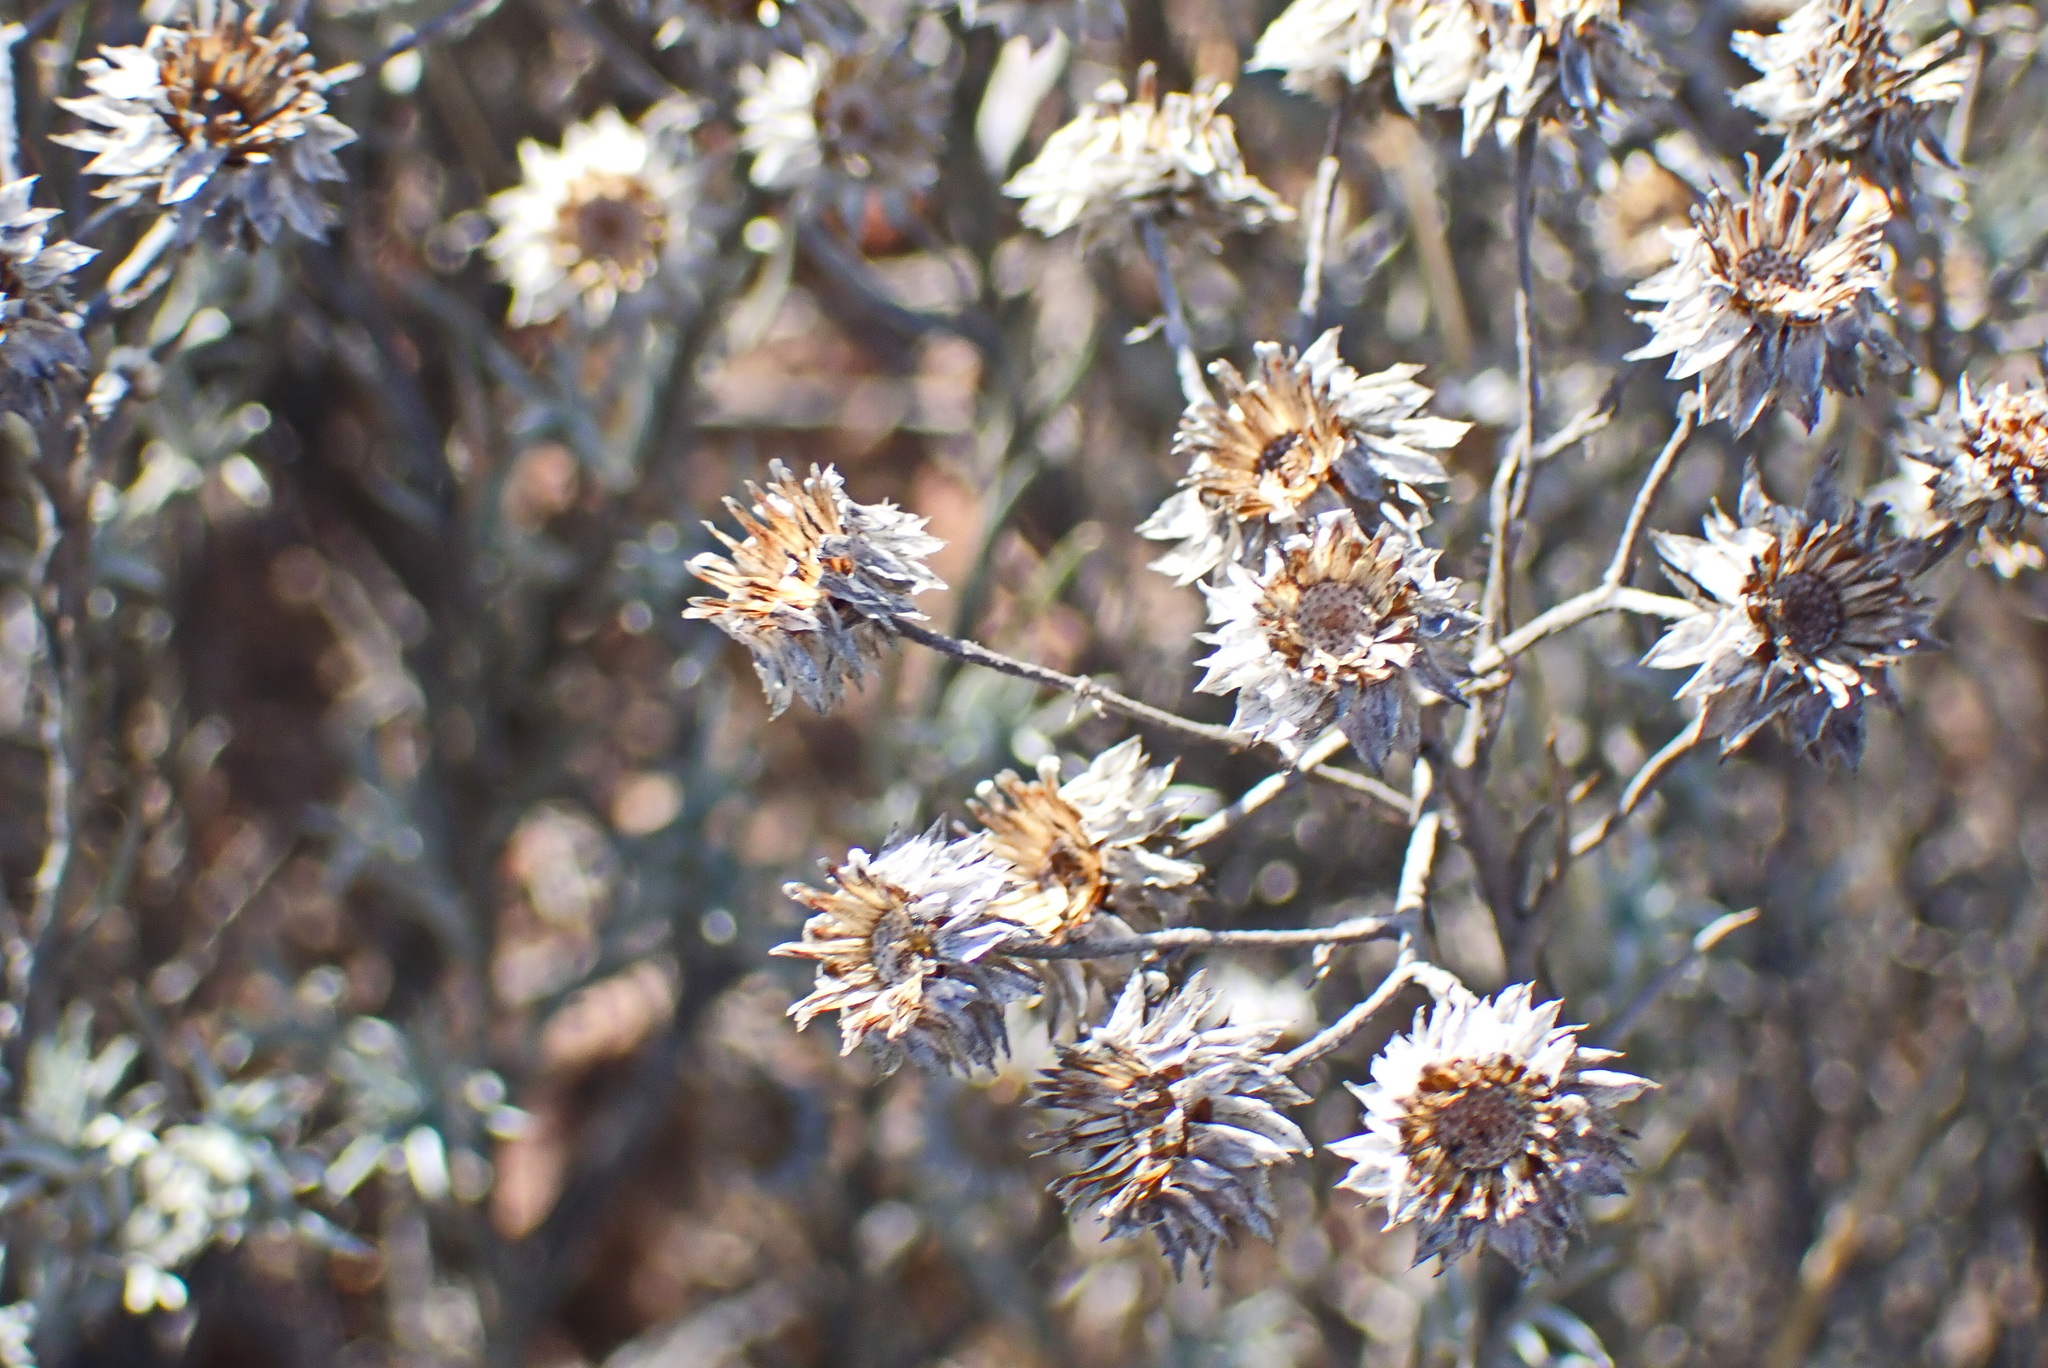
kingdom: Plantae
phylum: Tracheophyta
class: Magnoliopsida
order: Asterales
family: Asteraceae
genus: Achyranthemum
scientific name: Achyranthemum paniculatum
